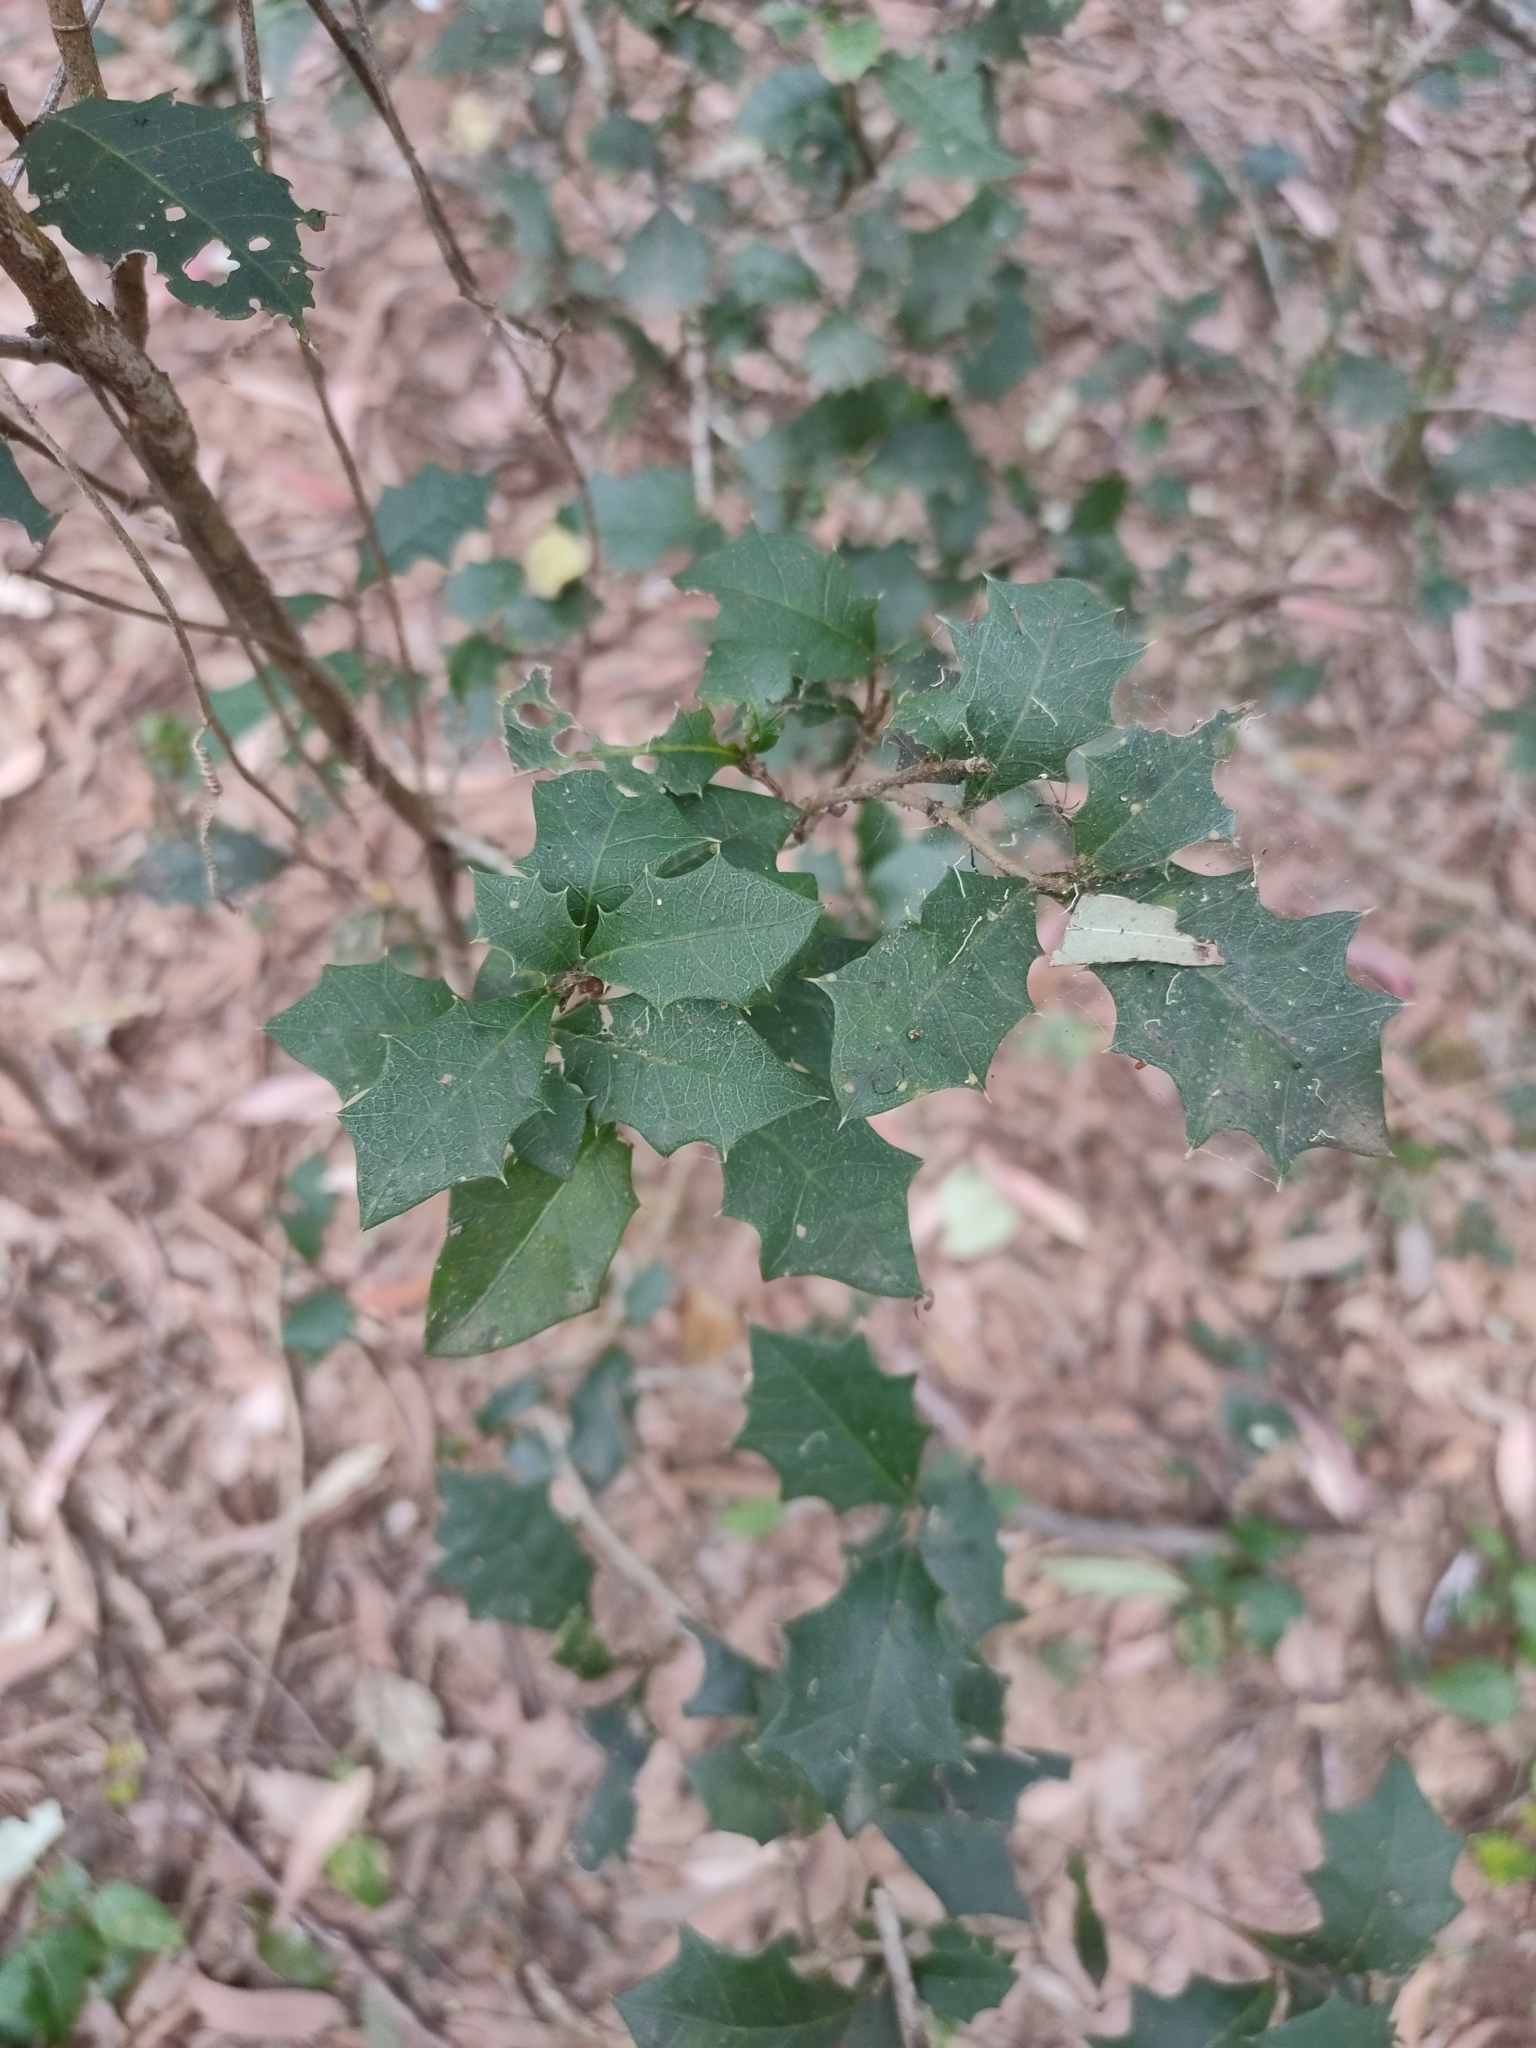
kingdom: Plantae
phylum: Tracheophyta
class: Magnoliopsida
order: Malpighiales
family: Euphorbiaceae
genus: Alchornea
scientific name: Alchornea ilicifolia
